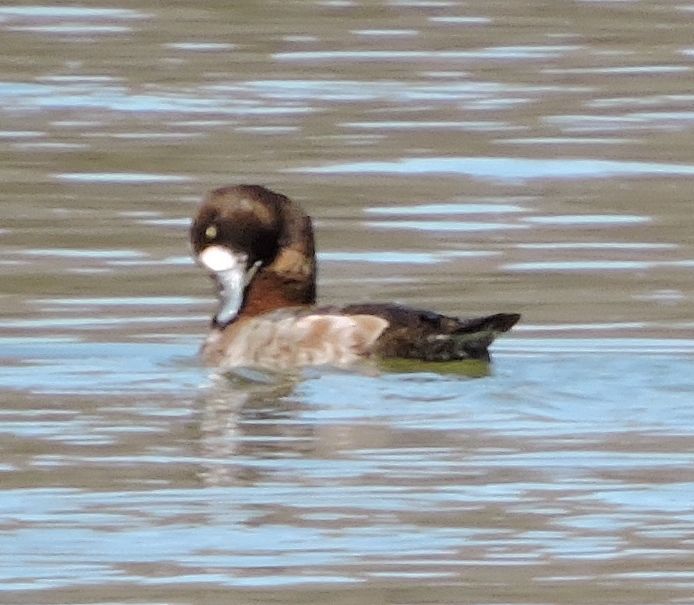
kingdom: Animalia
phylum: Chordata
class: Aves
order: Anseriformes
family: Anatidae
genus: Aythya
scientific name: Aythya
